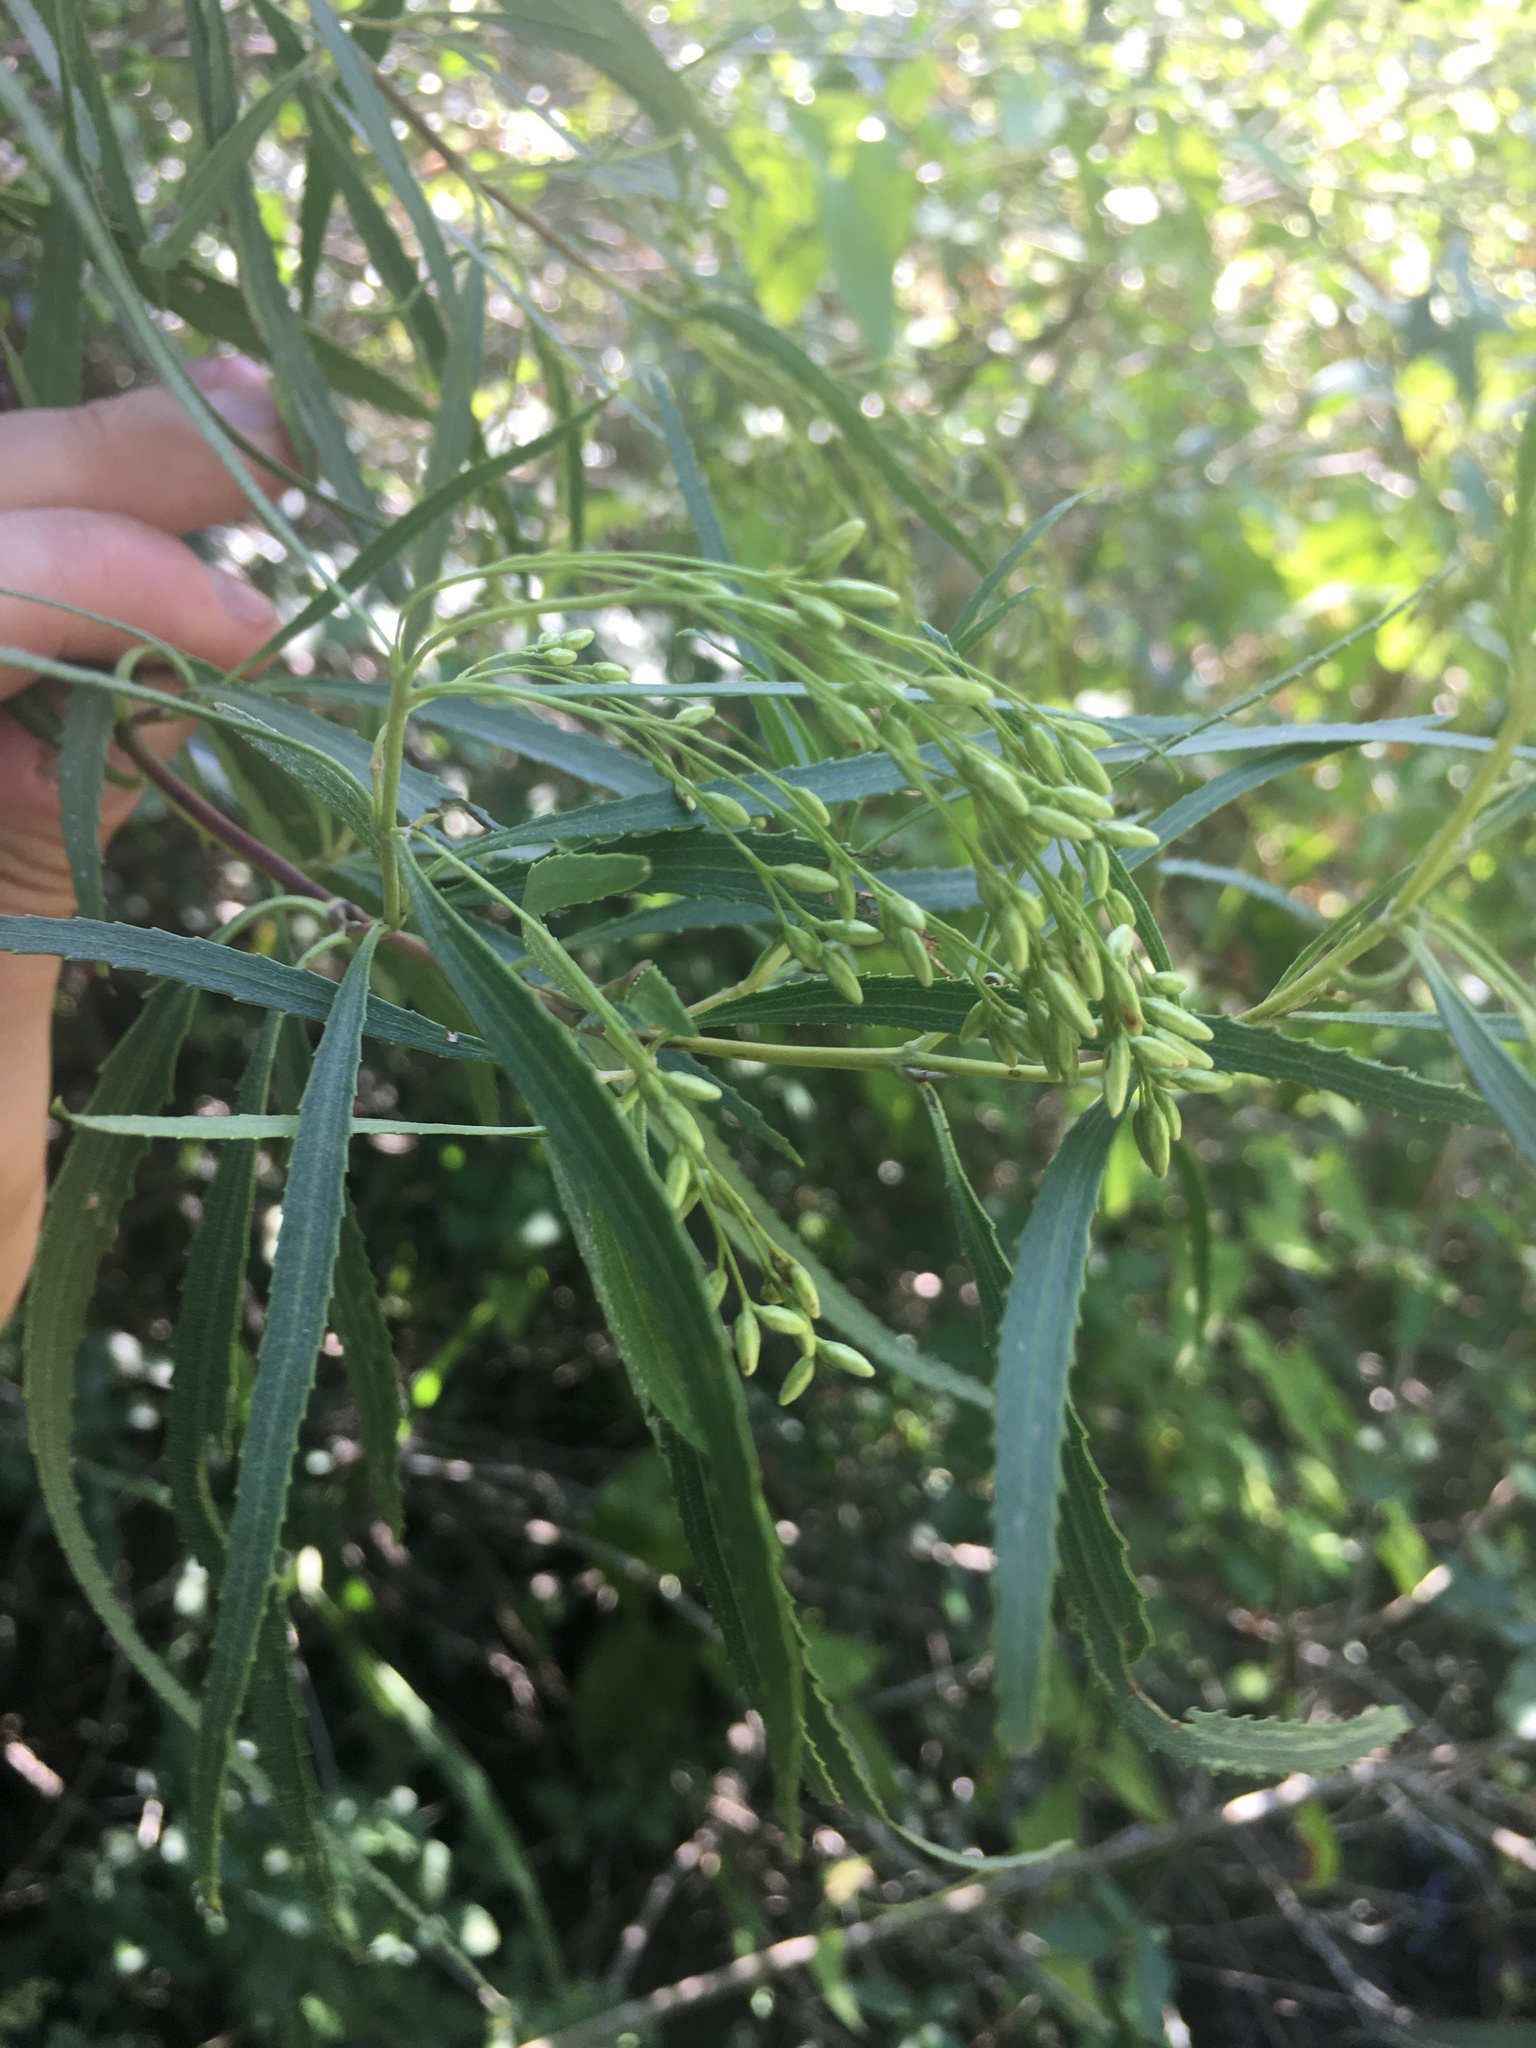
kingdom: Plantae
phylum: Tracheophyta
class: Magnoliopsida
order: Asterales
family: Asteraceae
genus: Raulinoreitzia
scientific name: Raulinoreitzia tremula
